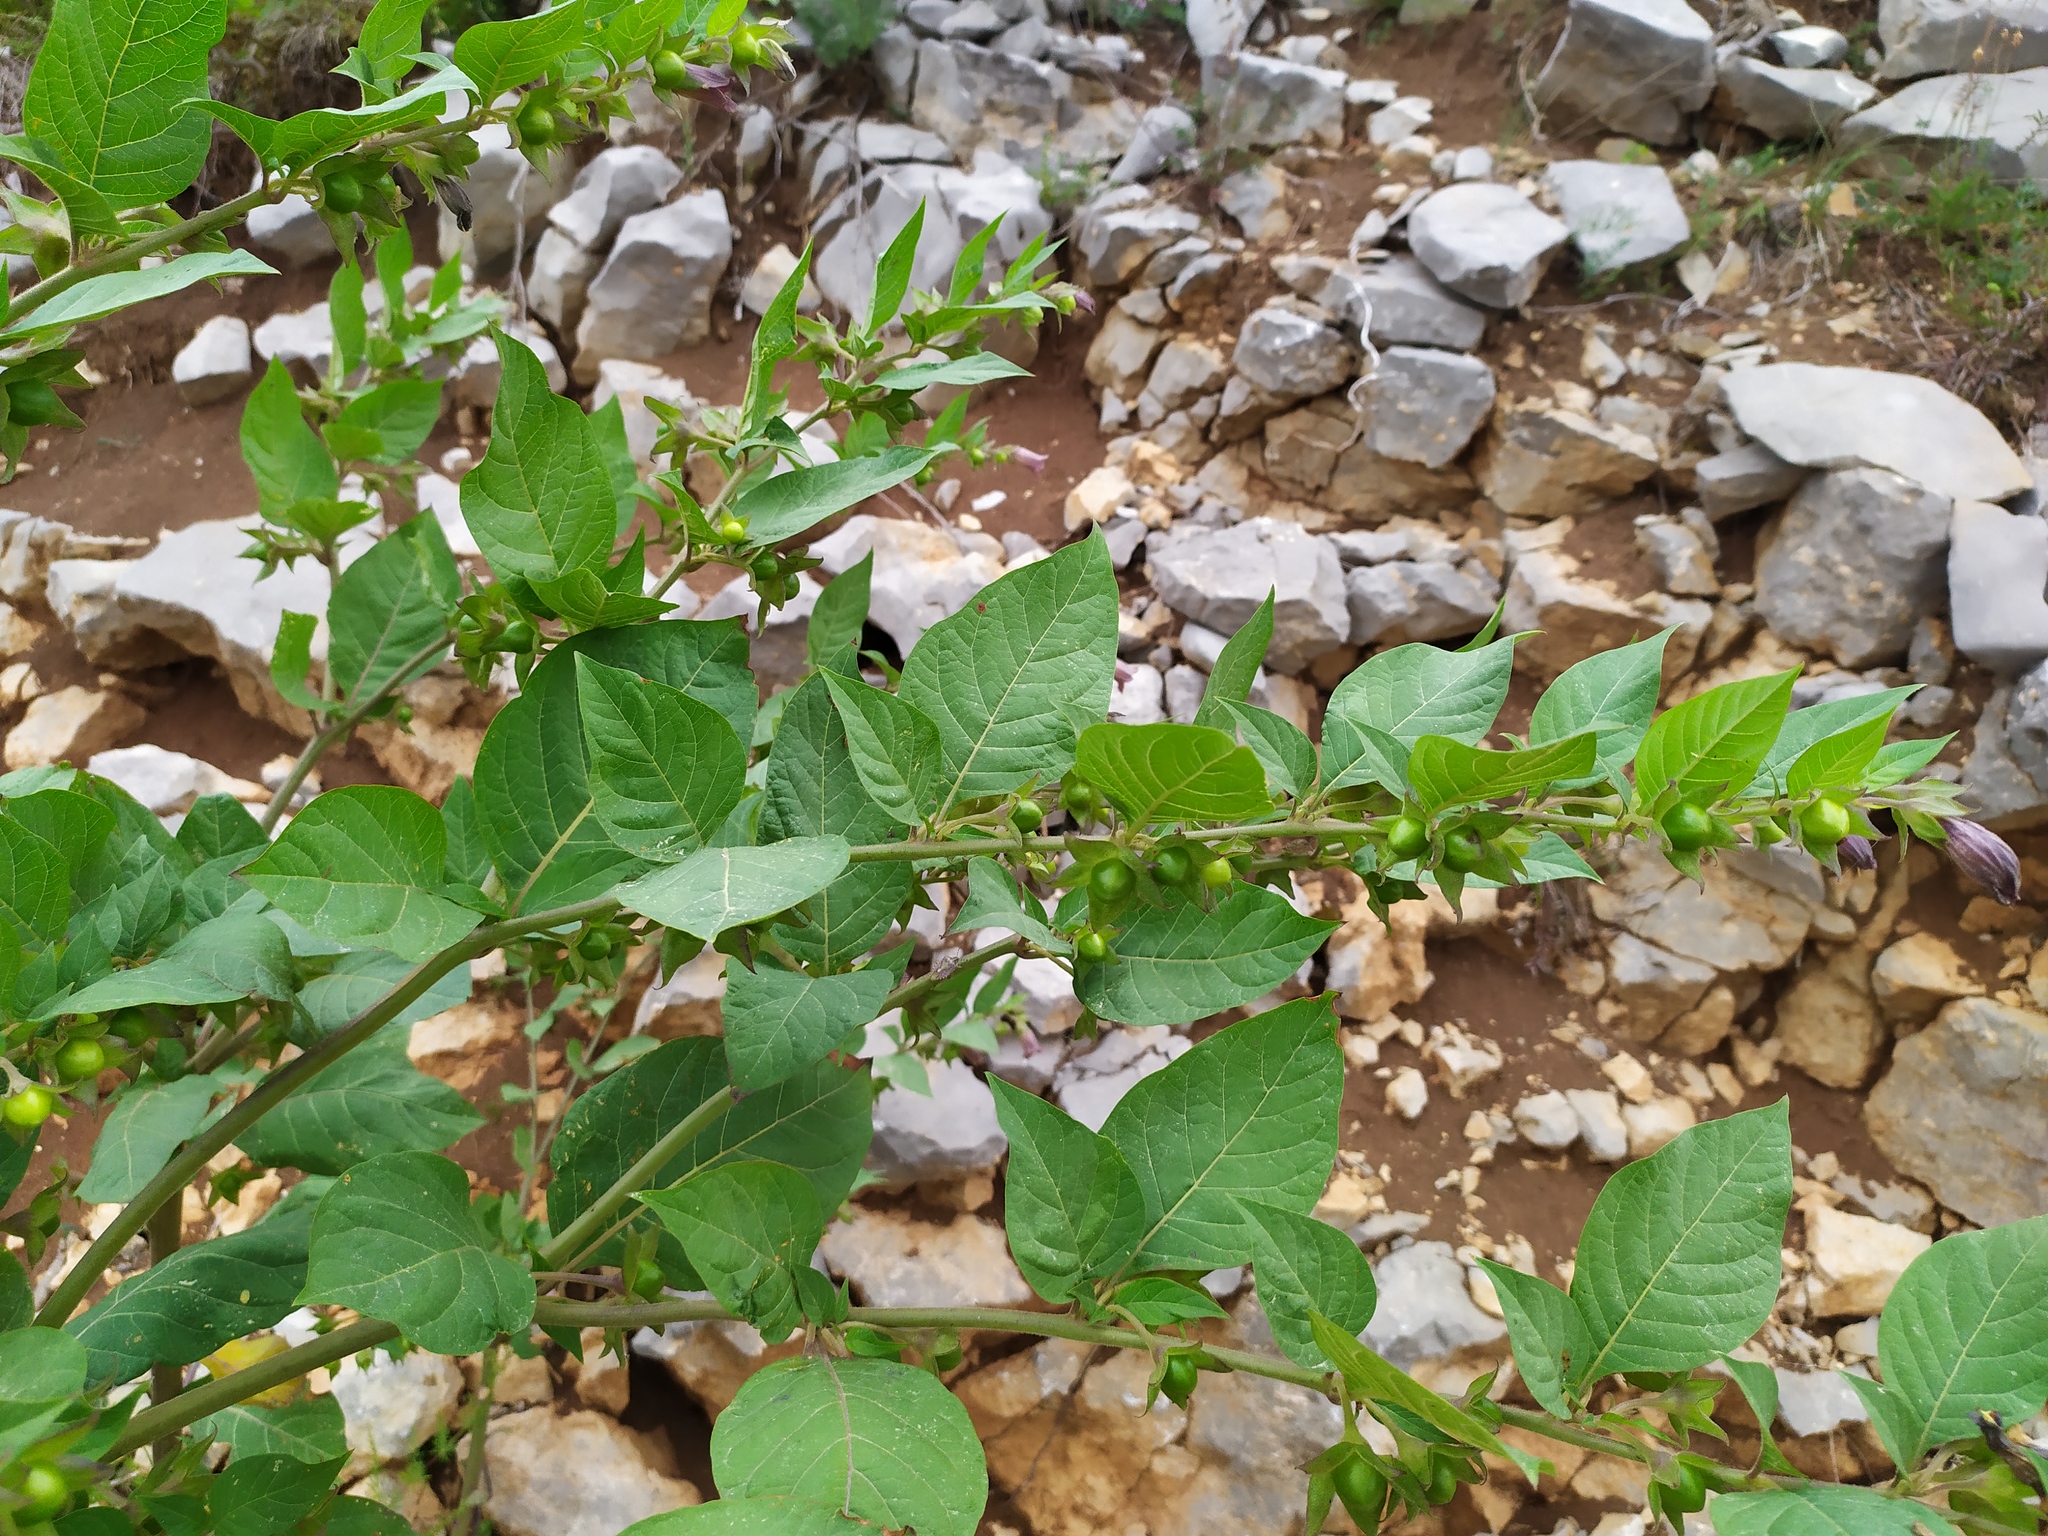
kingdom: Plantae
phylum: Tracheophyta
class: Magnoliopsida
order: Solanales
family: Solanaceae
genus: Atropa
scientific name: Atropa belladonna
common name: Deadly nightshade
